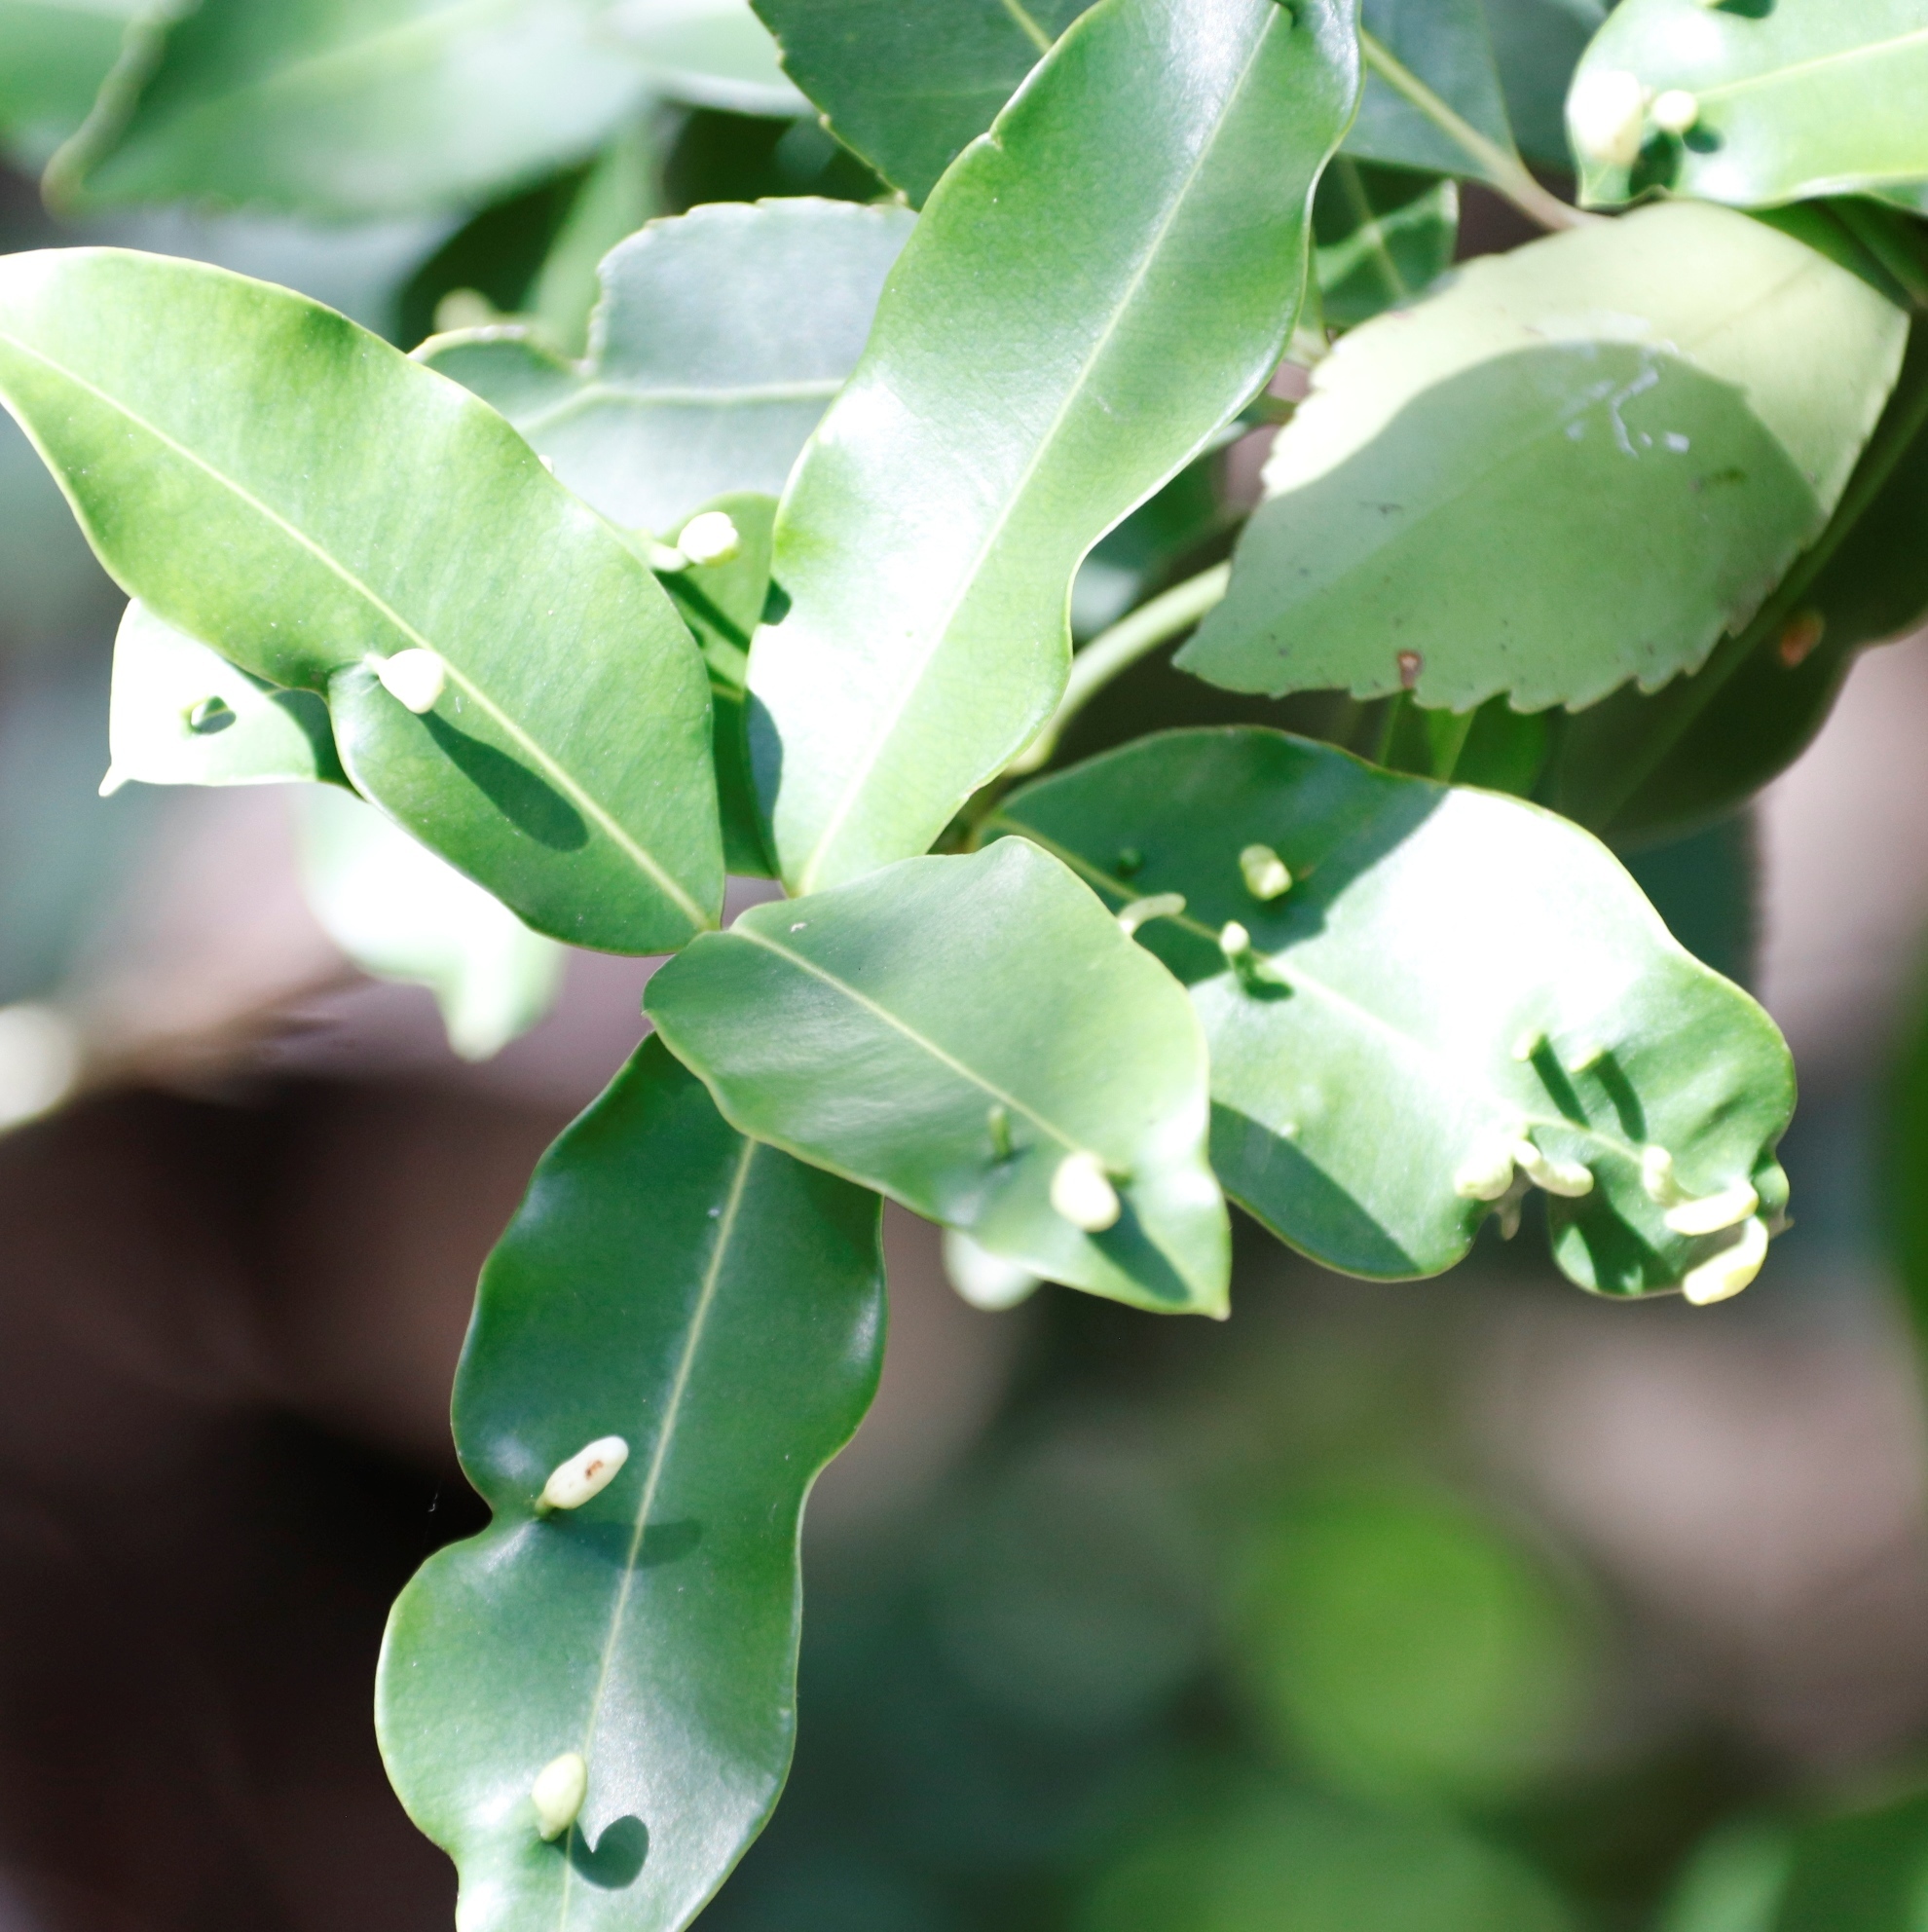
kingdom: Plantae
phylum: Tracheophyta
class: Magnoliopsida
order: Celastrales
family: Celastraceae
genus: Elaeodendron
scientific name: Elaeodendron schinoides
